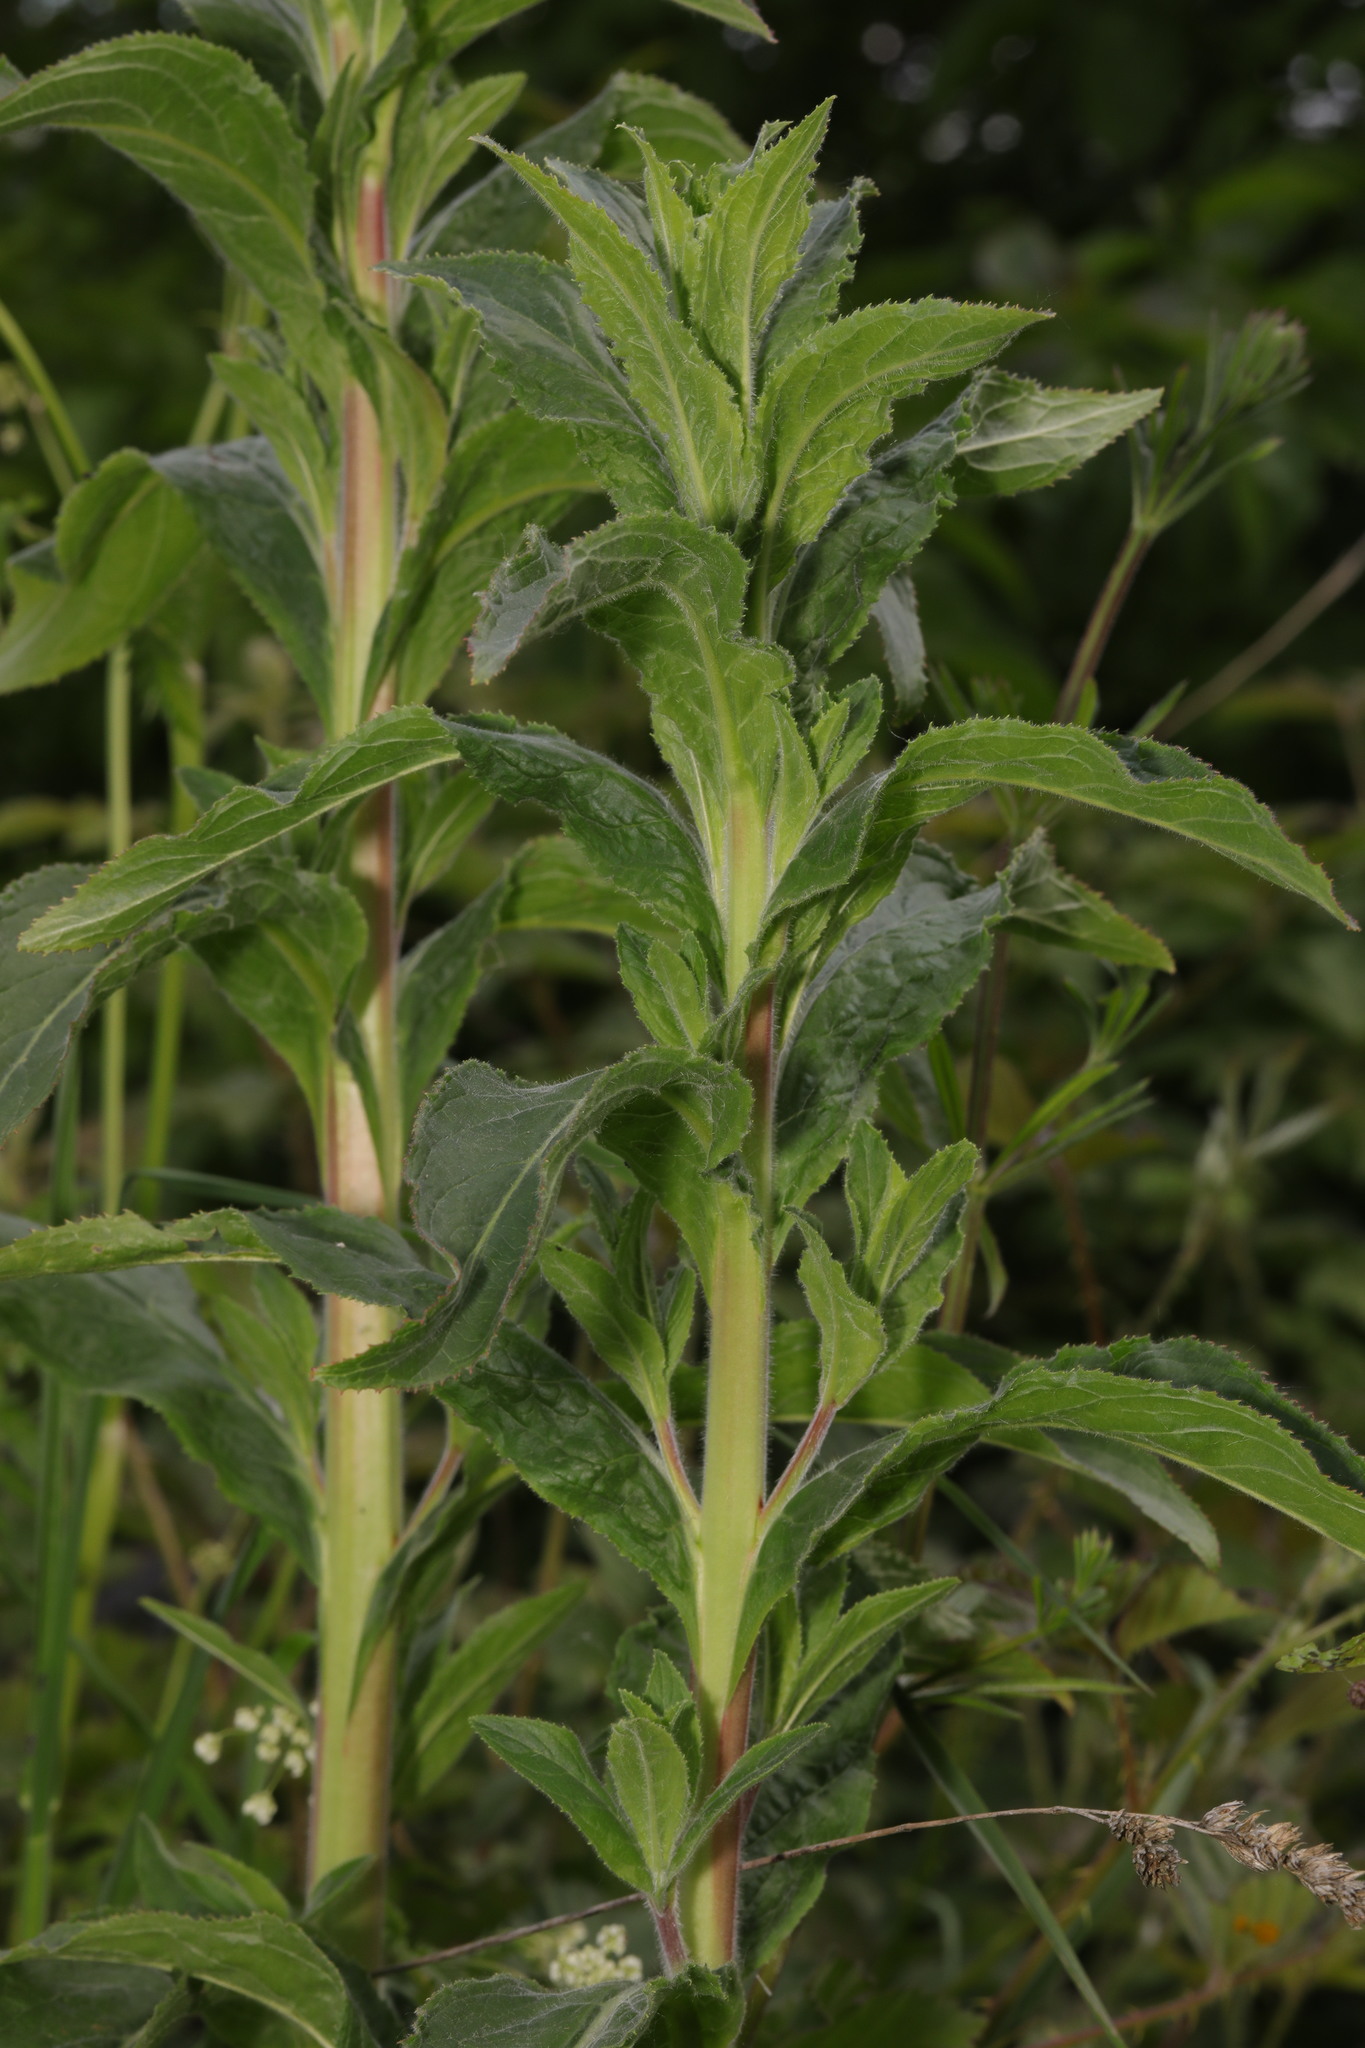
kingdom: Plantae
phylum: Tracheophyta
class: Magnoliopsida
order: Myrtales
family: Onagraceae
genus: Epilobium
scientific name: Epilobium hirsutum
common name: Great willowherb
